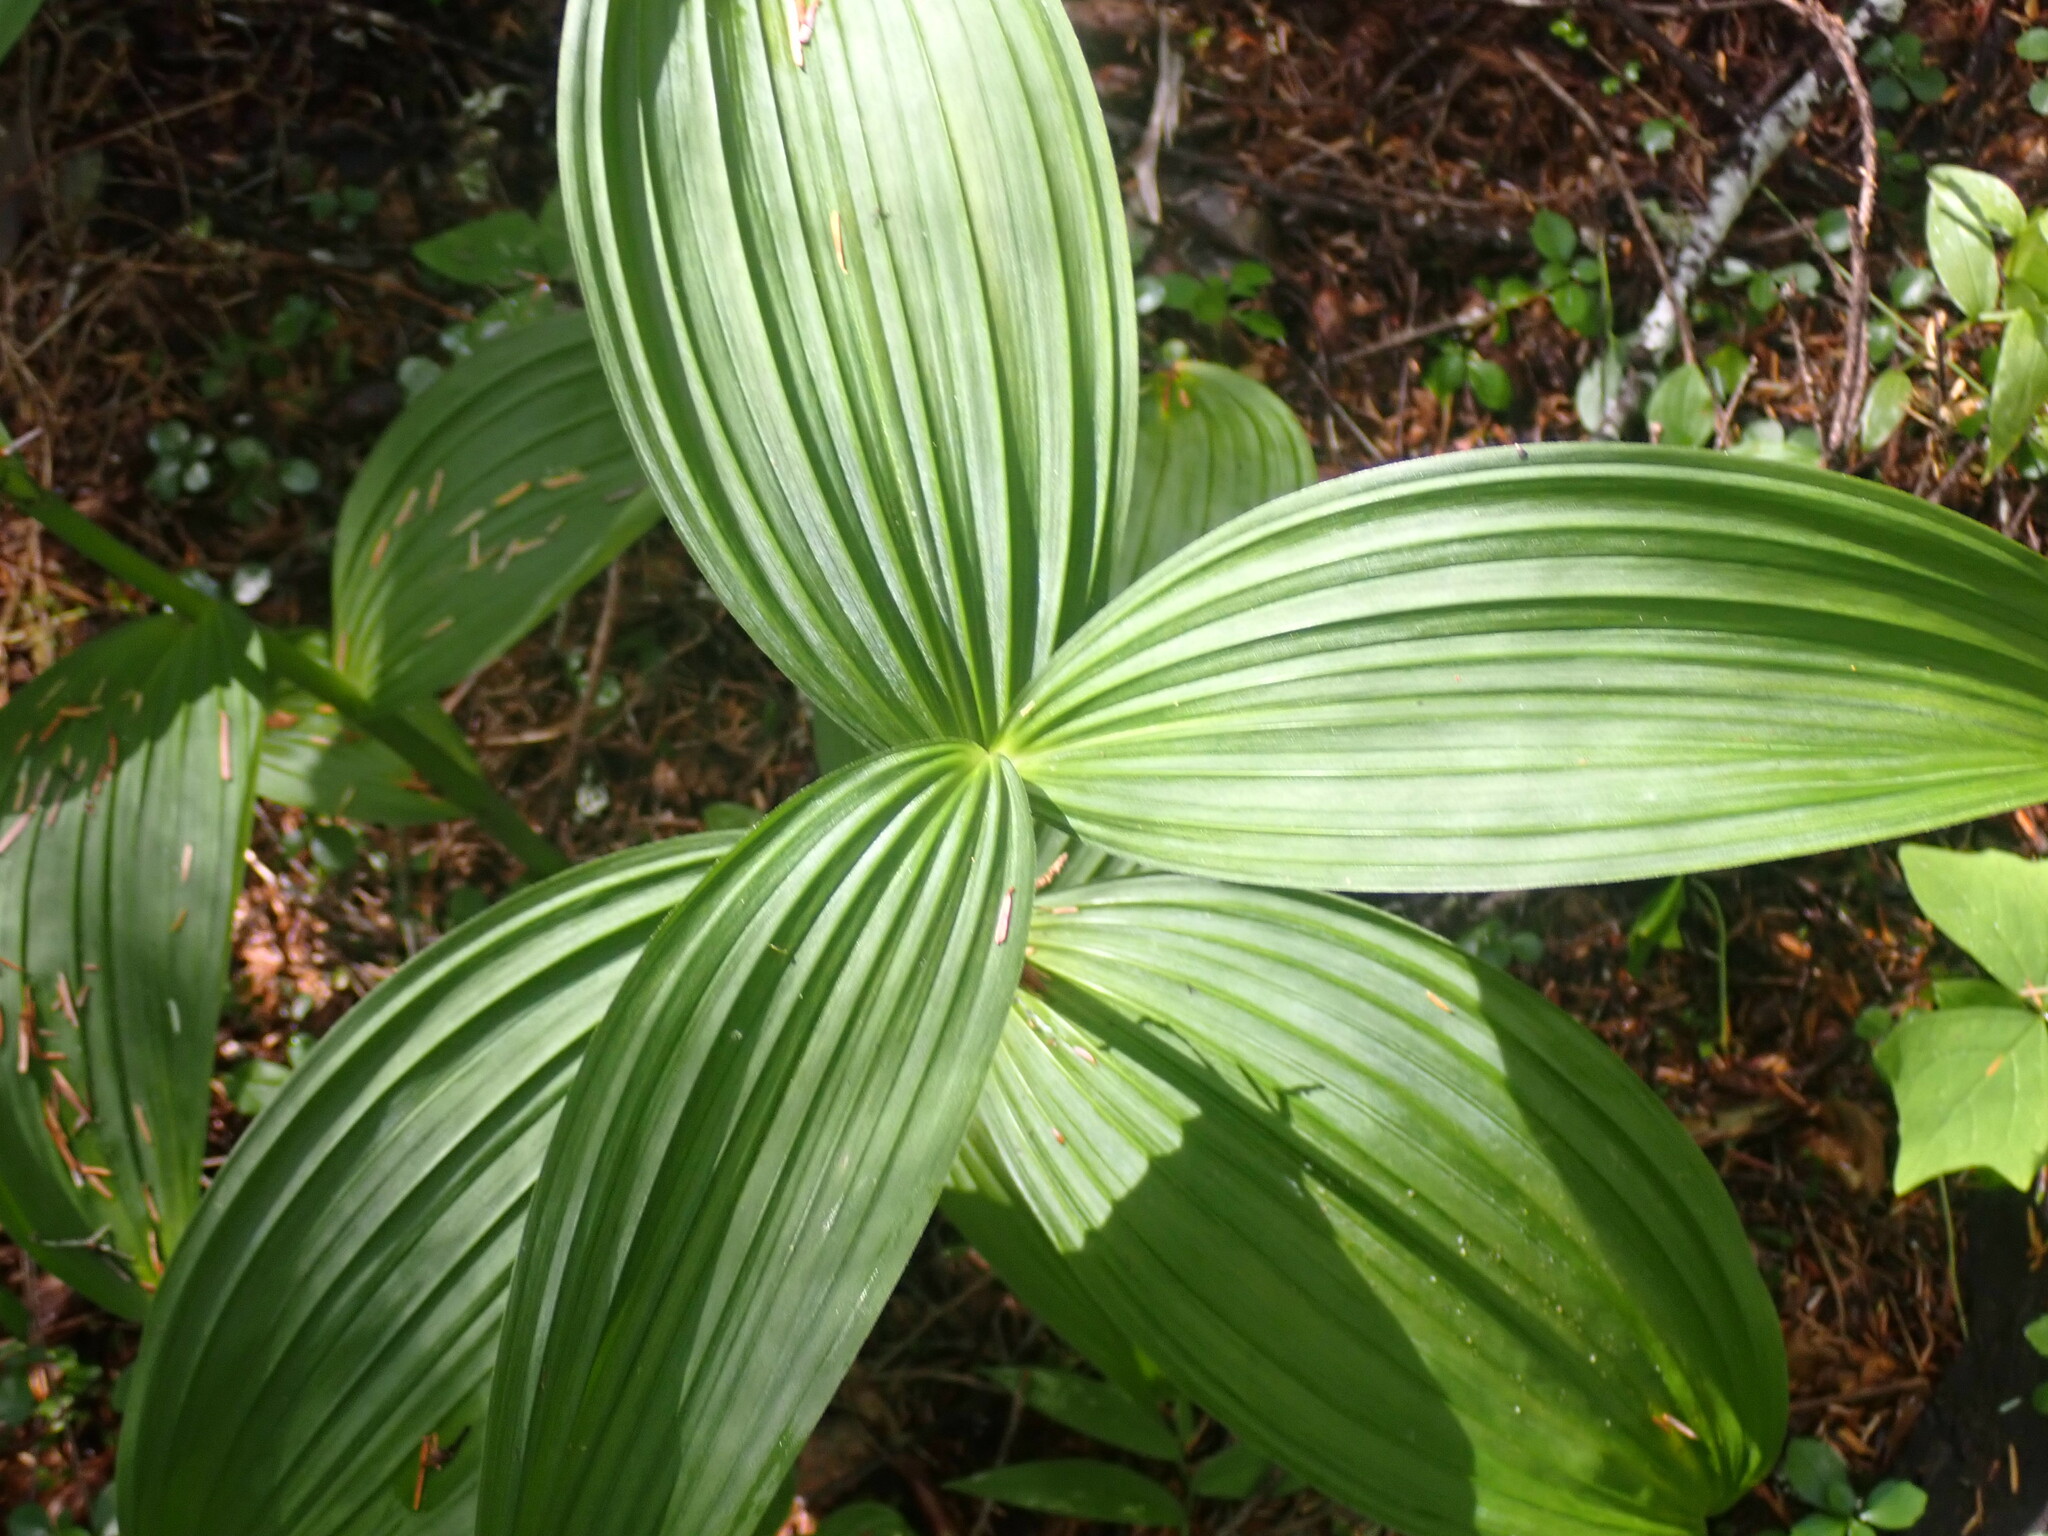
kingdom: Plantae
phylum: Tracheophyta
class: Liliopsida
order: Liliales
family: Melanthiaceae
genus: Veratrum
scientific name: Veratrum viride
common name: American false hellebore
